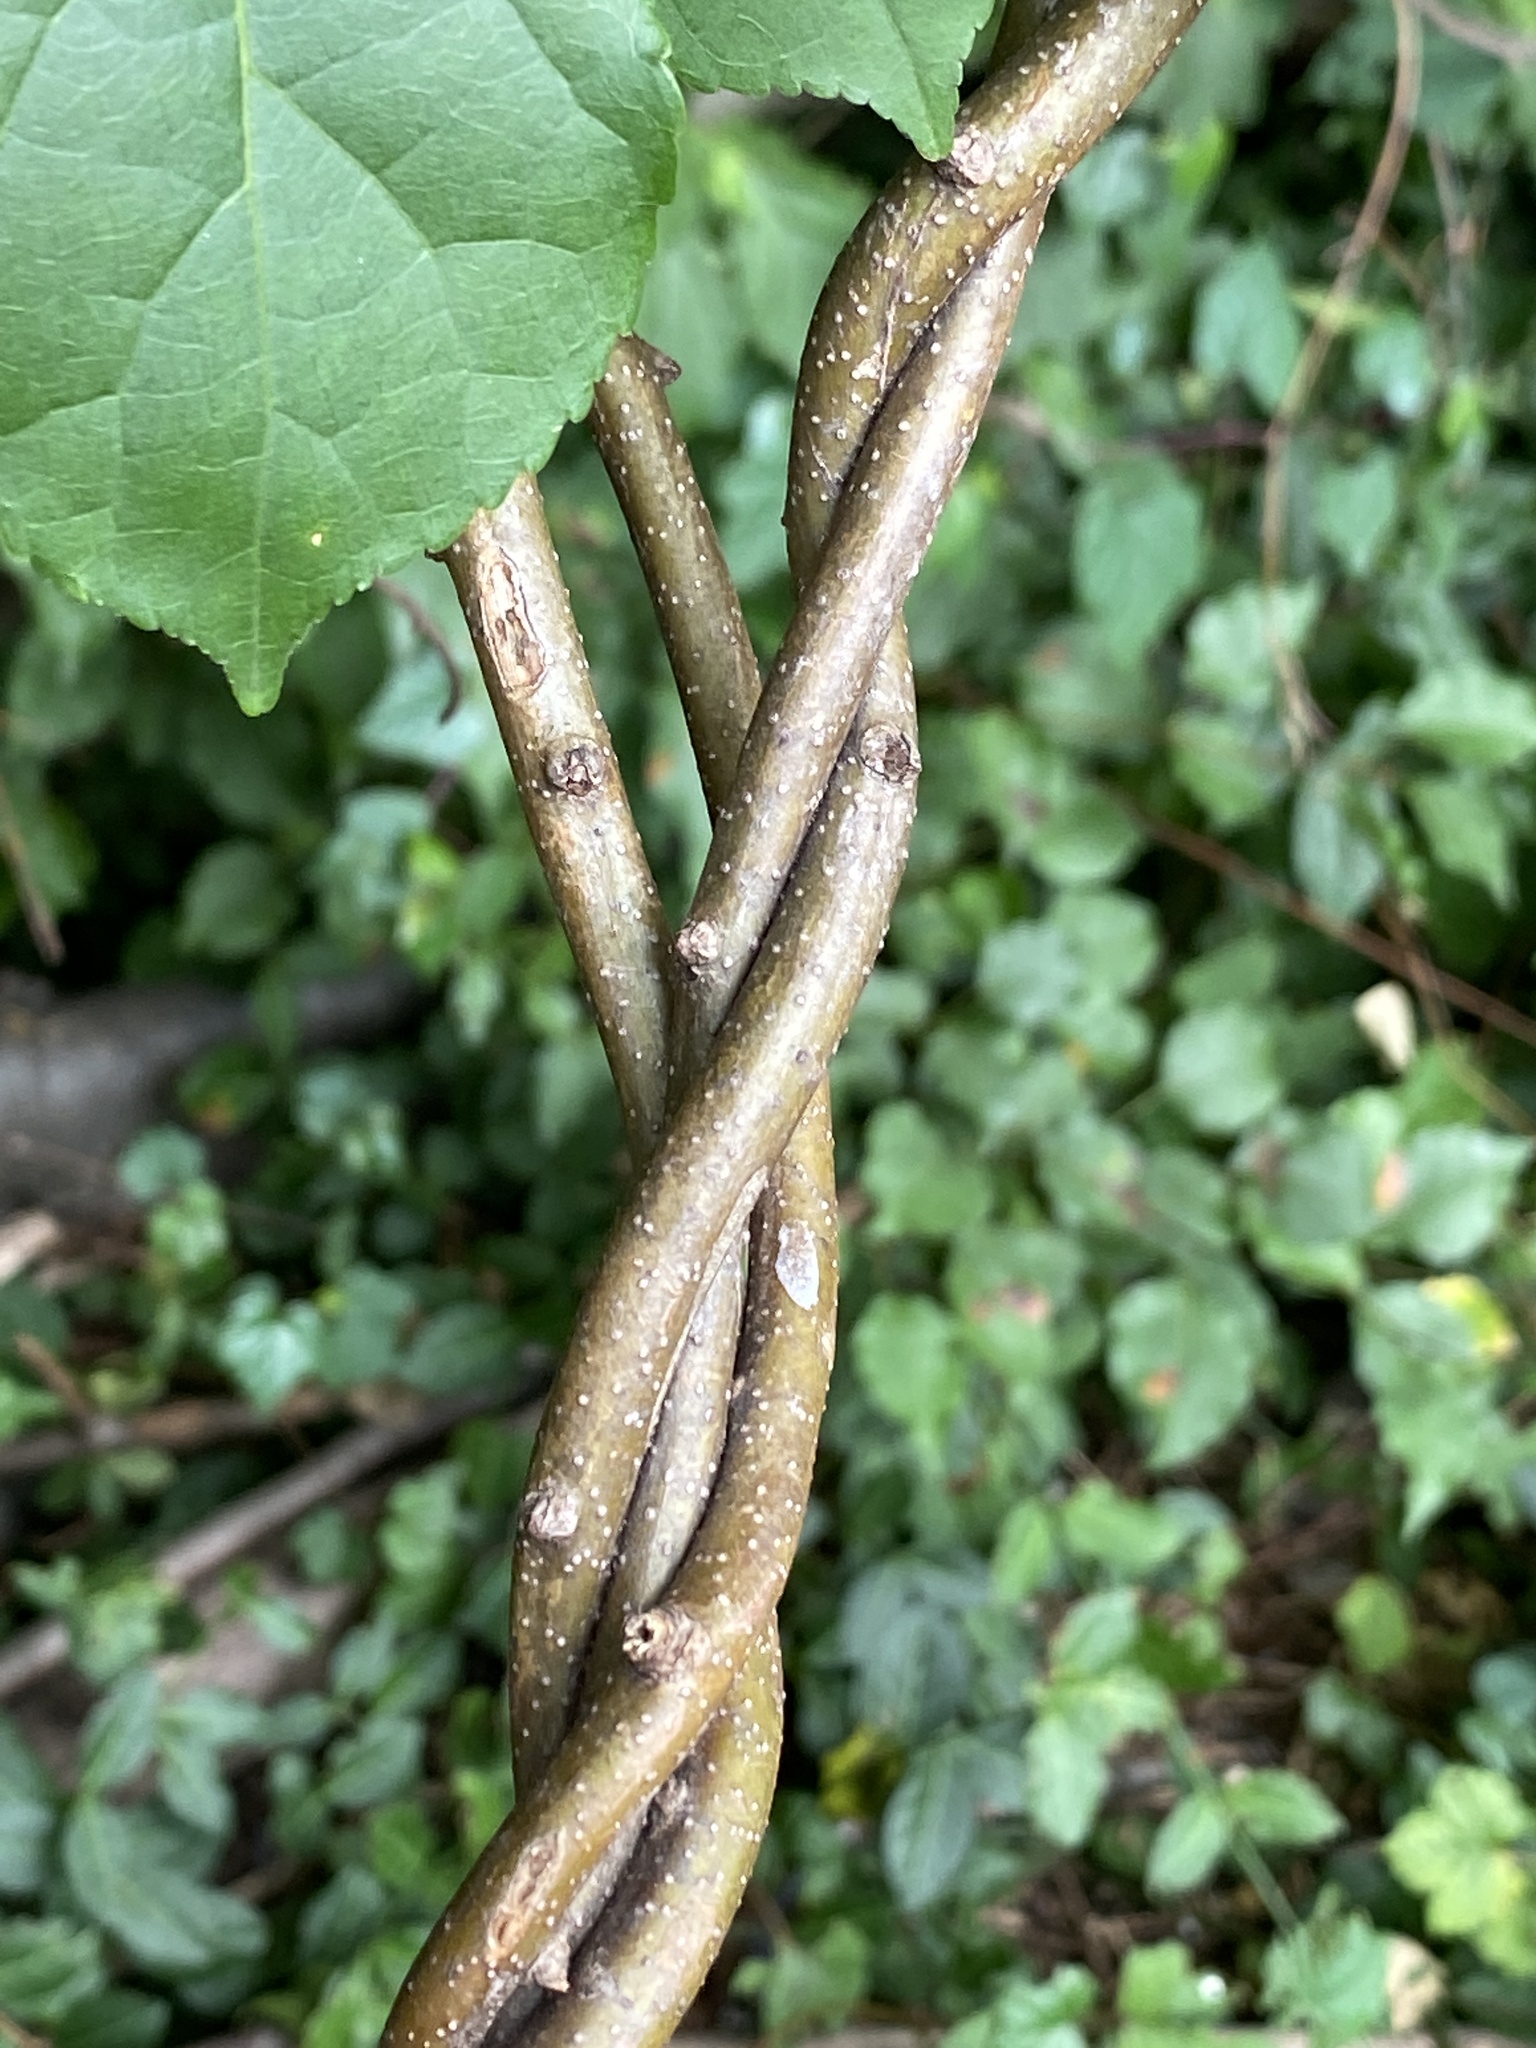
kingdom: Plantae
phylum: Tracheophyta
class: Magnoliopsida
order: Celastrales
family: Celastraceae
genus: Celastrus
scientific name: Celastrus orbiculatus
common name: Oriental bittersweet
